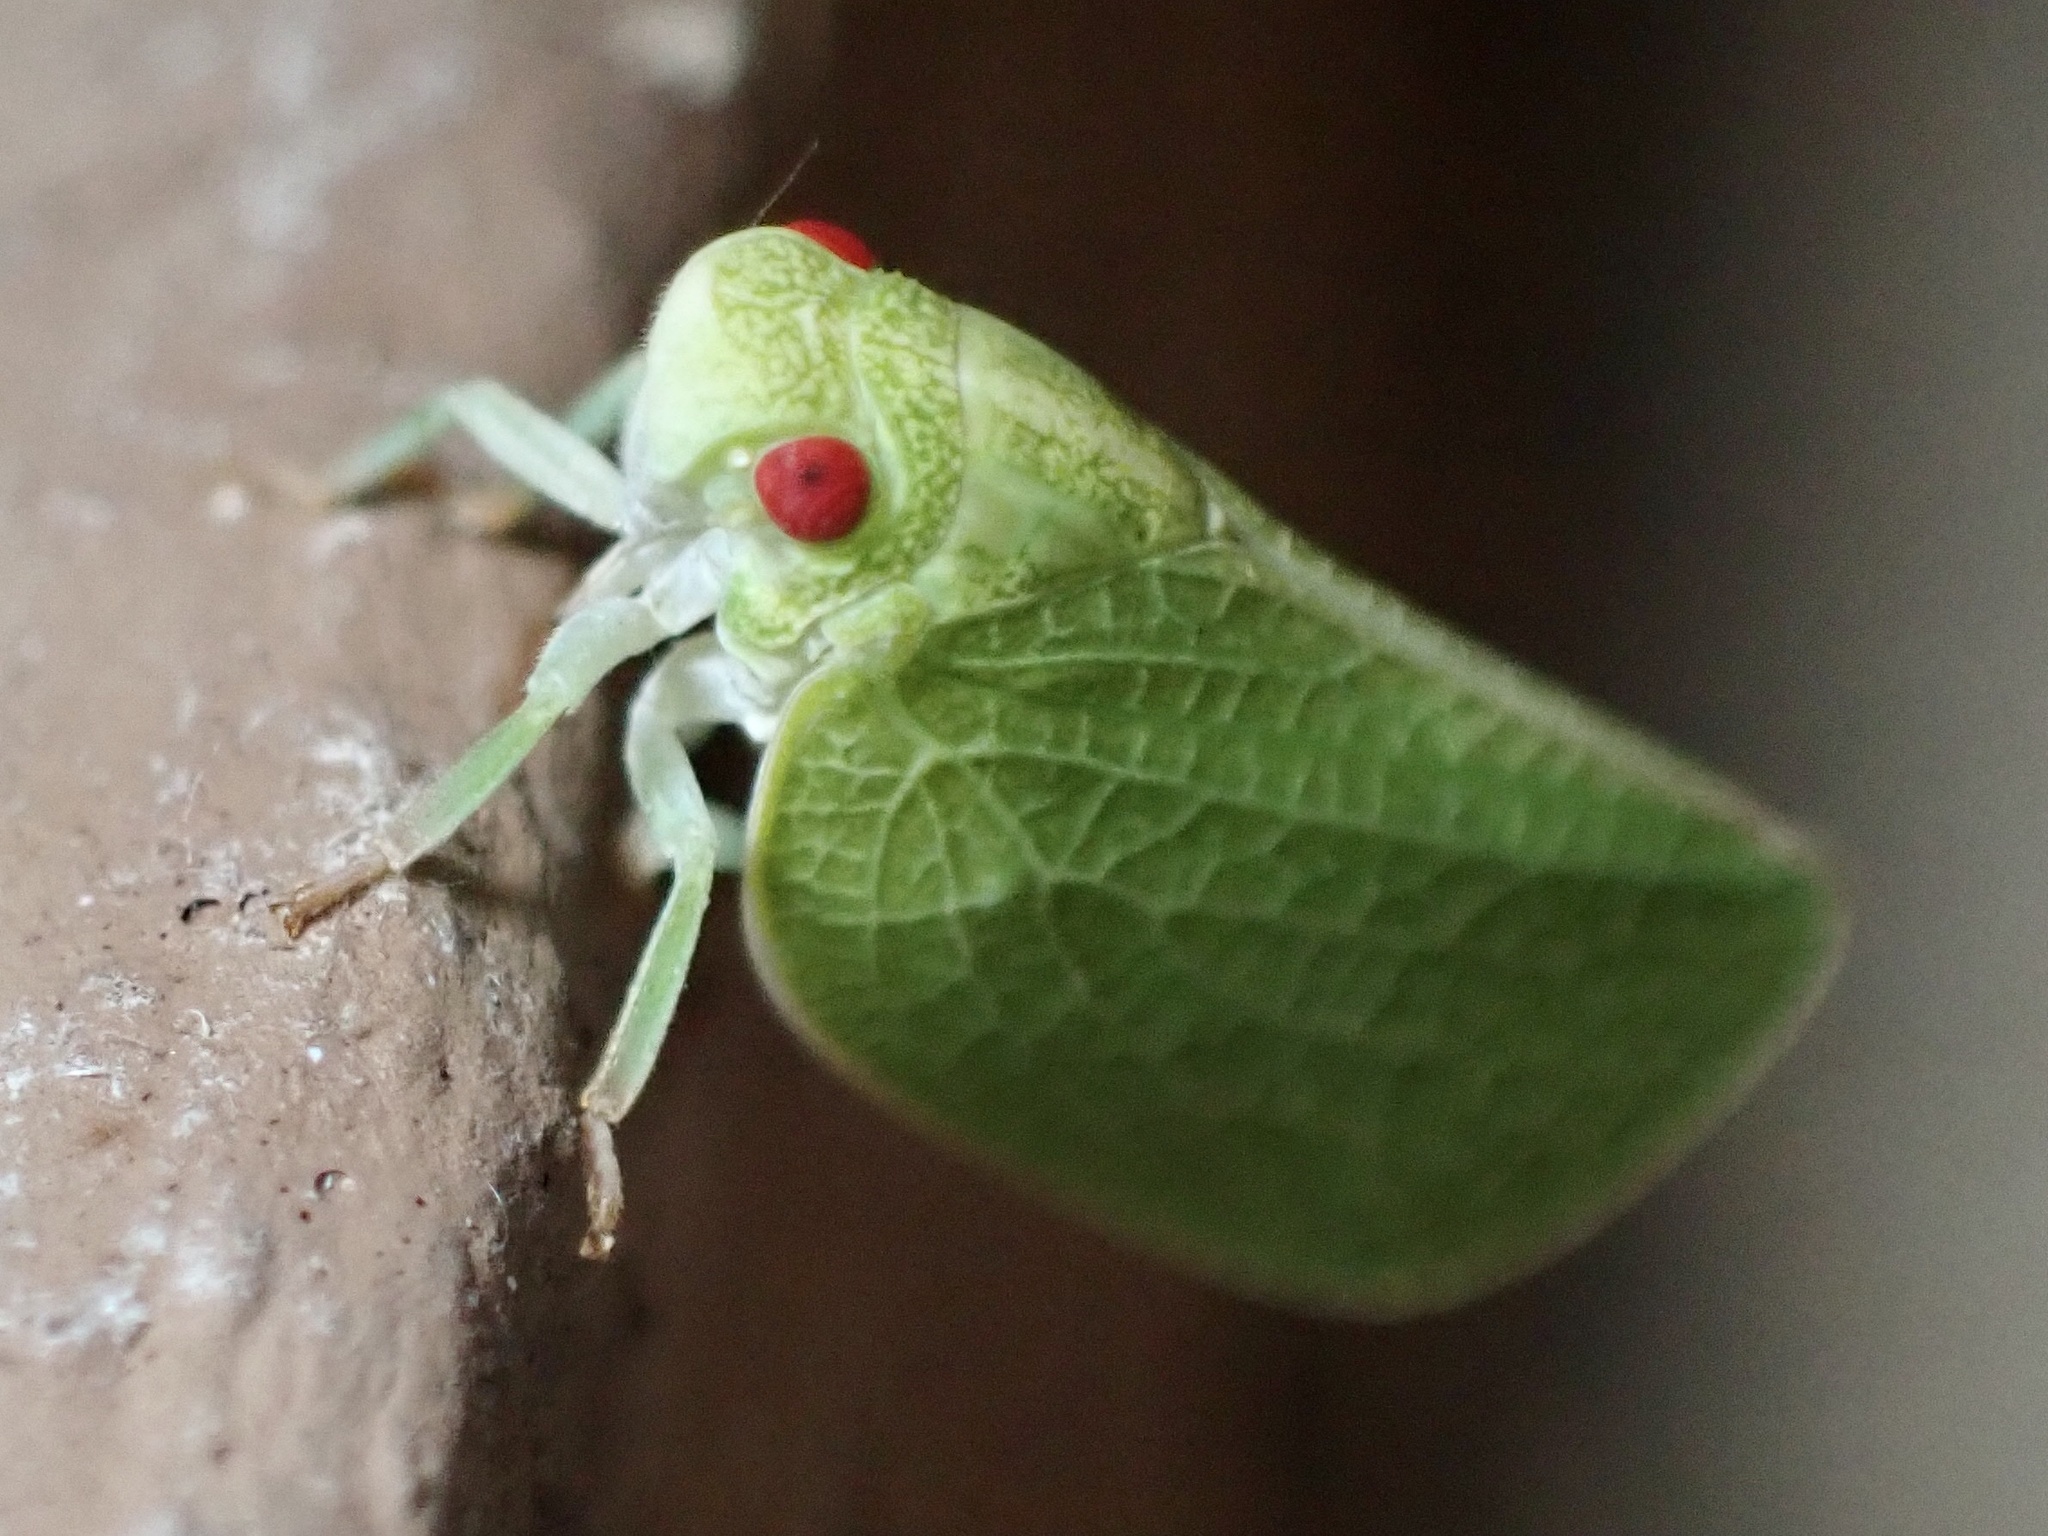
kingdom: Animalia
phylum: Arthropoda
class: Insecta
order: Hemiptera
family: Acanaloniidae
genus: Acanalonia
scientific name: Acanalonia conica
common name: Green cone-headed planthopper
